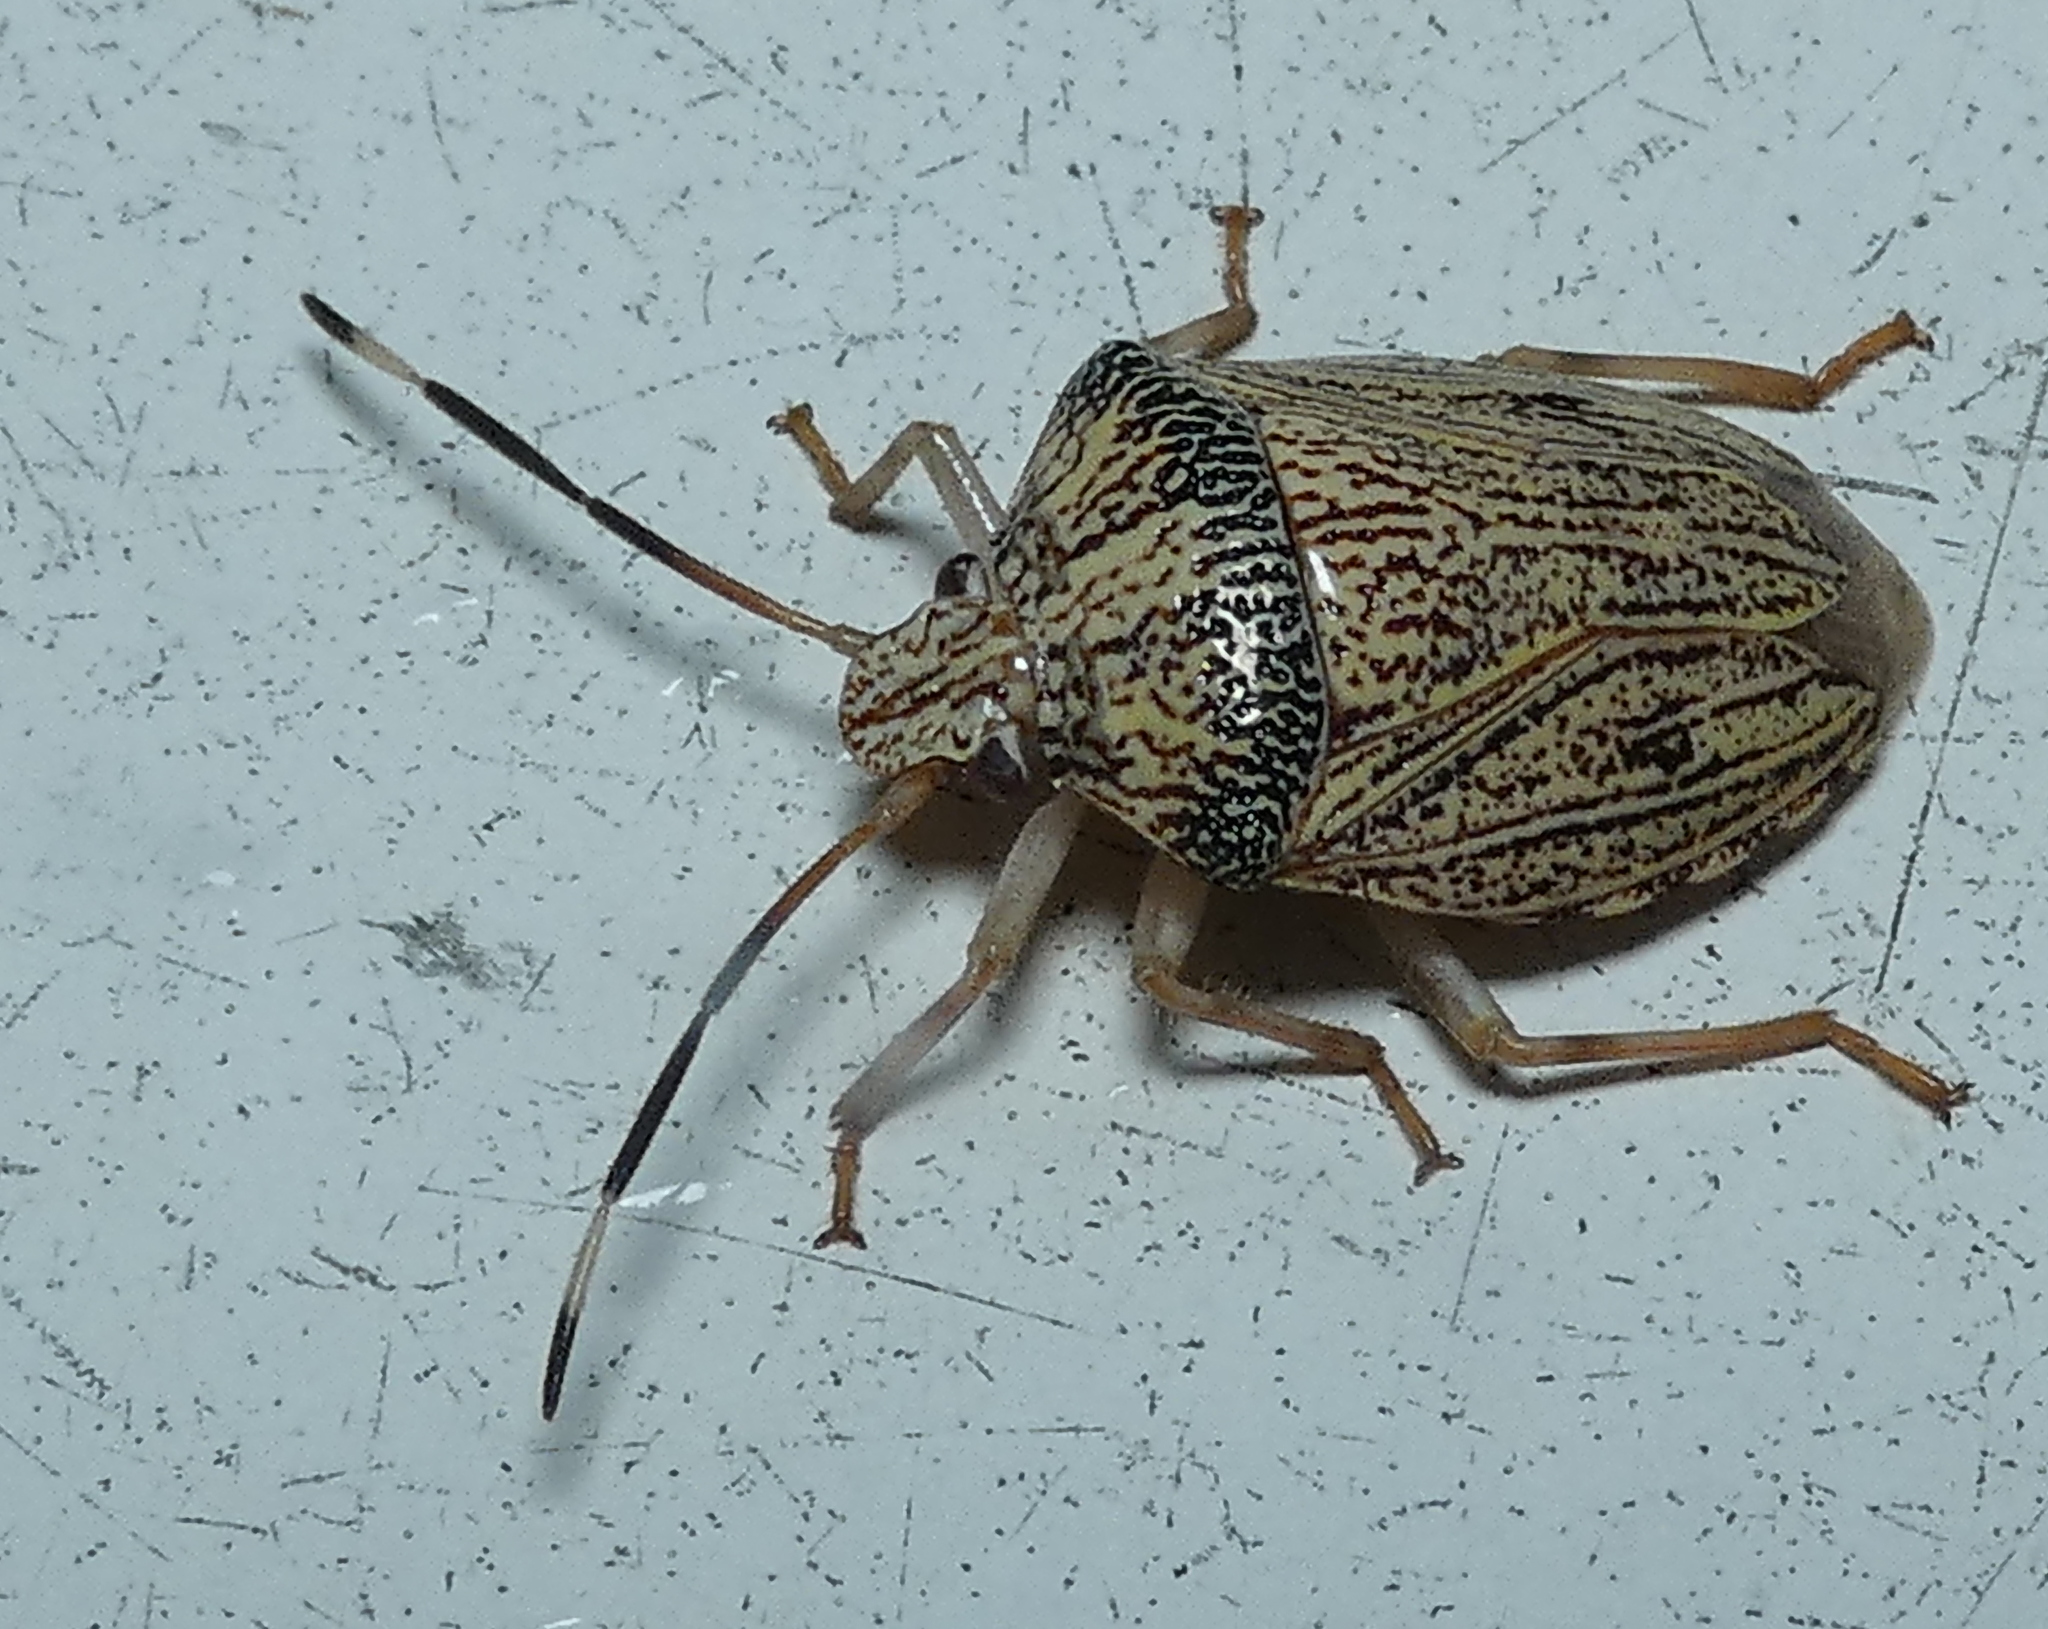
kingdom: Animalia
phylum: Arthropoda
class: Insecta
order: Hemiptera
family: Pentatomidae
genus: Antiteuchus
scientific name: Antiteuchus macraspis
